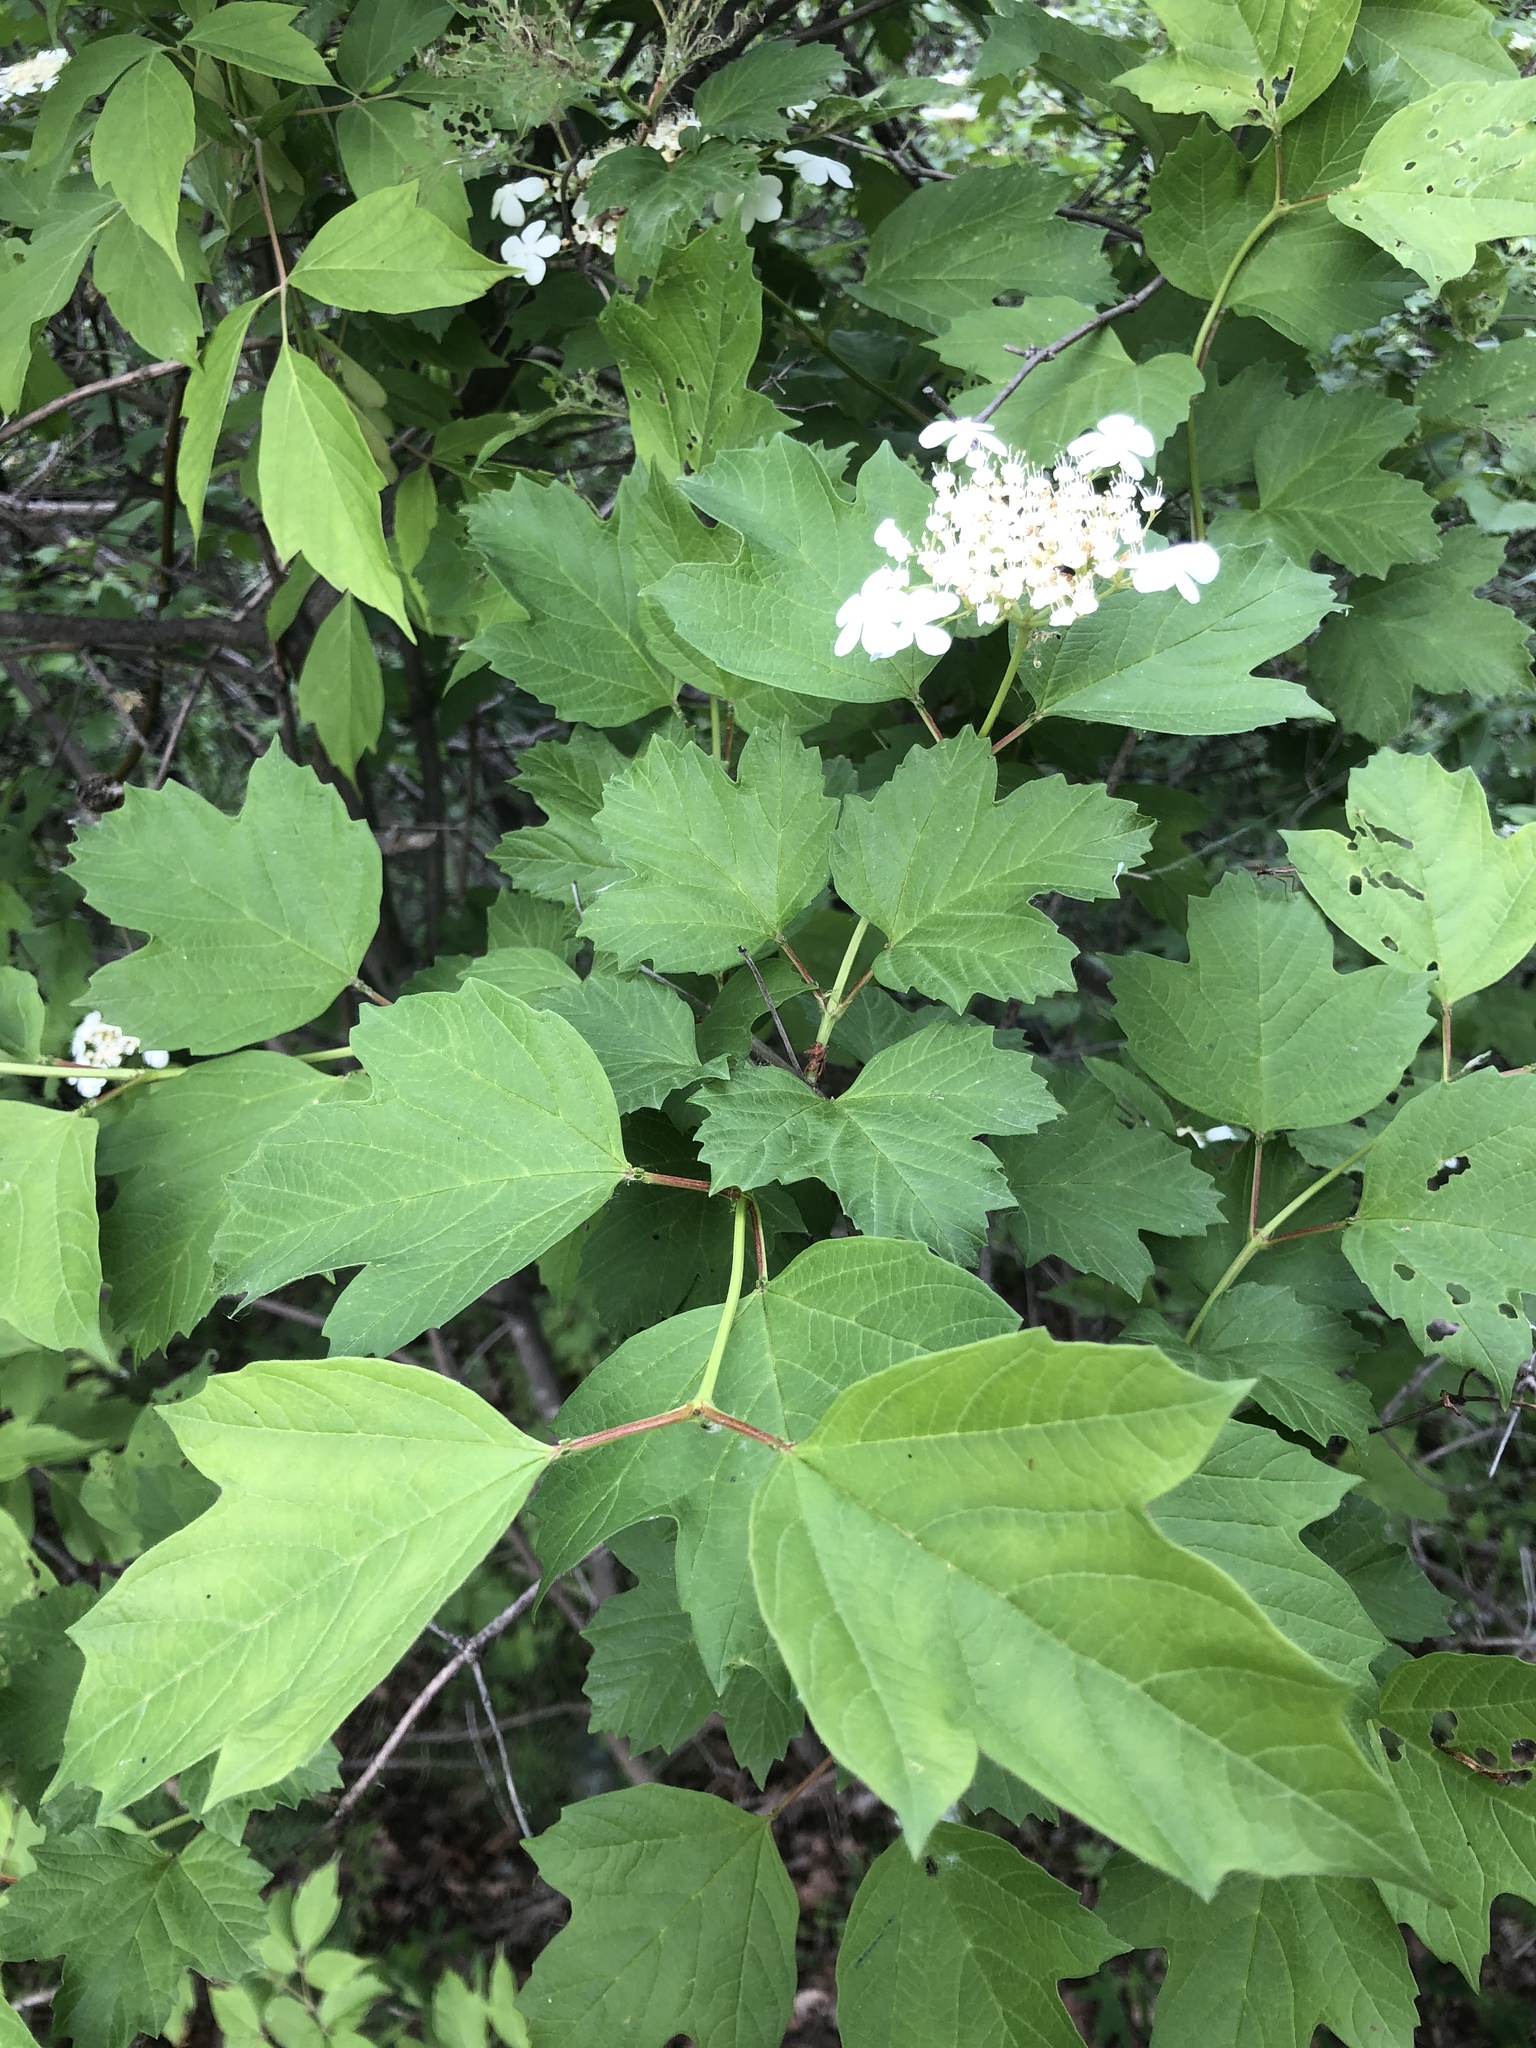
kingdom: Plantae
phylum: Tracheophyta
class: Magnoliopsida
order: Dipsacales
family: Viburnaceae
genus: Viburnum
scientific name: Viburnum opulus
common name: Guelder-rose
